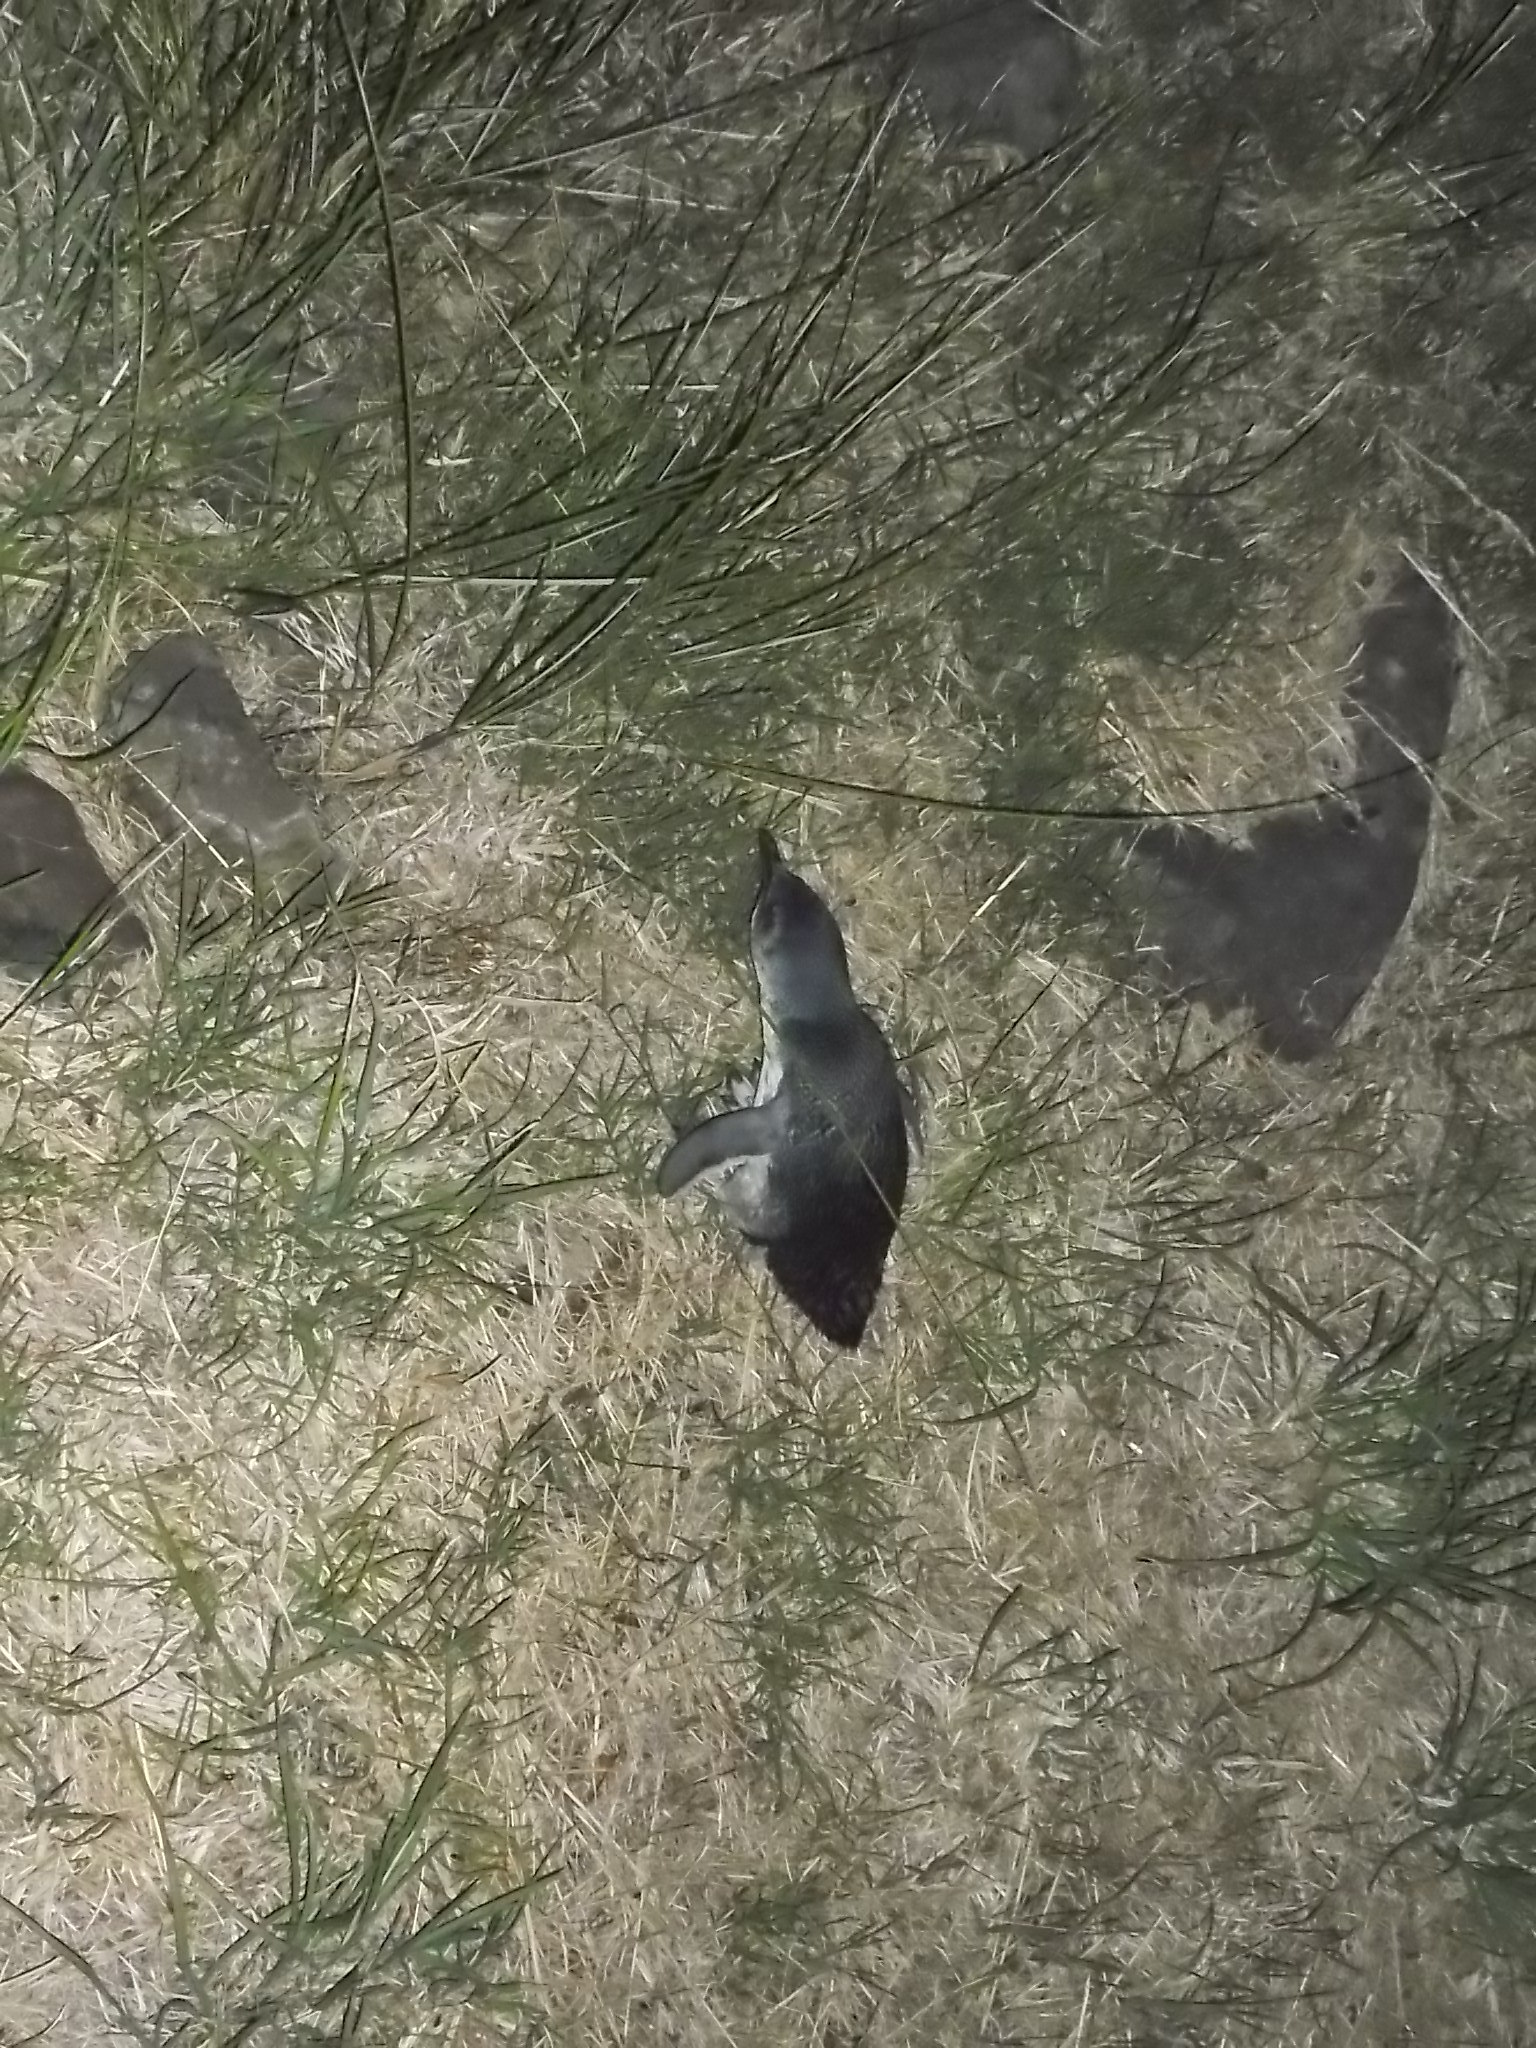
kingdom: Animalia
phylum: Chordata
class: Aves
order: Sphenisciformes
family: Spheniscidae
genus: Eudyptula
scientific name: Eudyptula minor
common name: Little penguin
